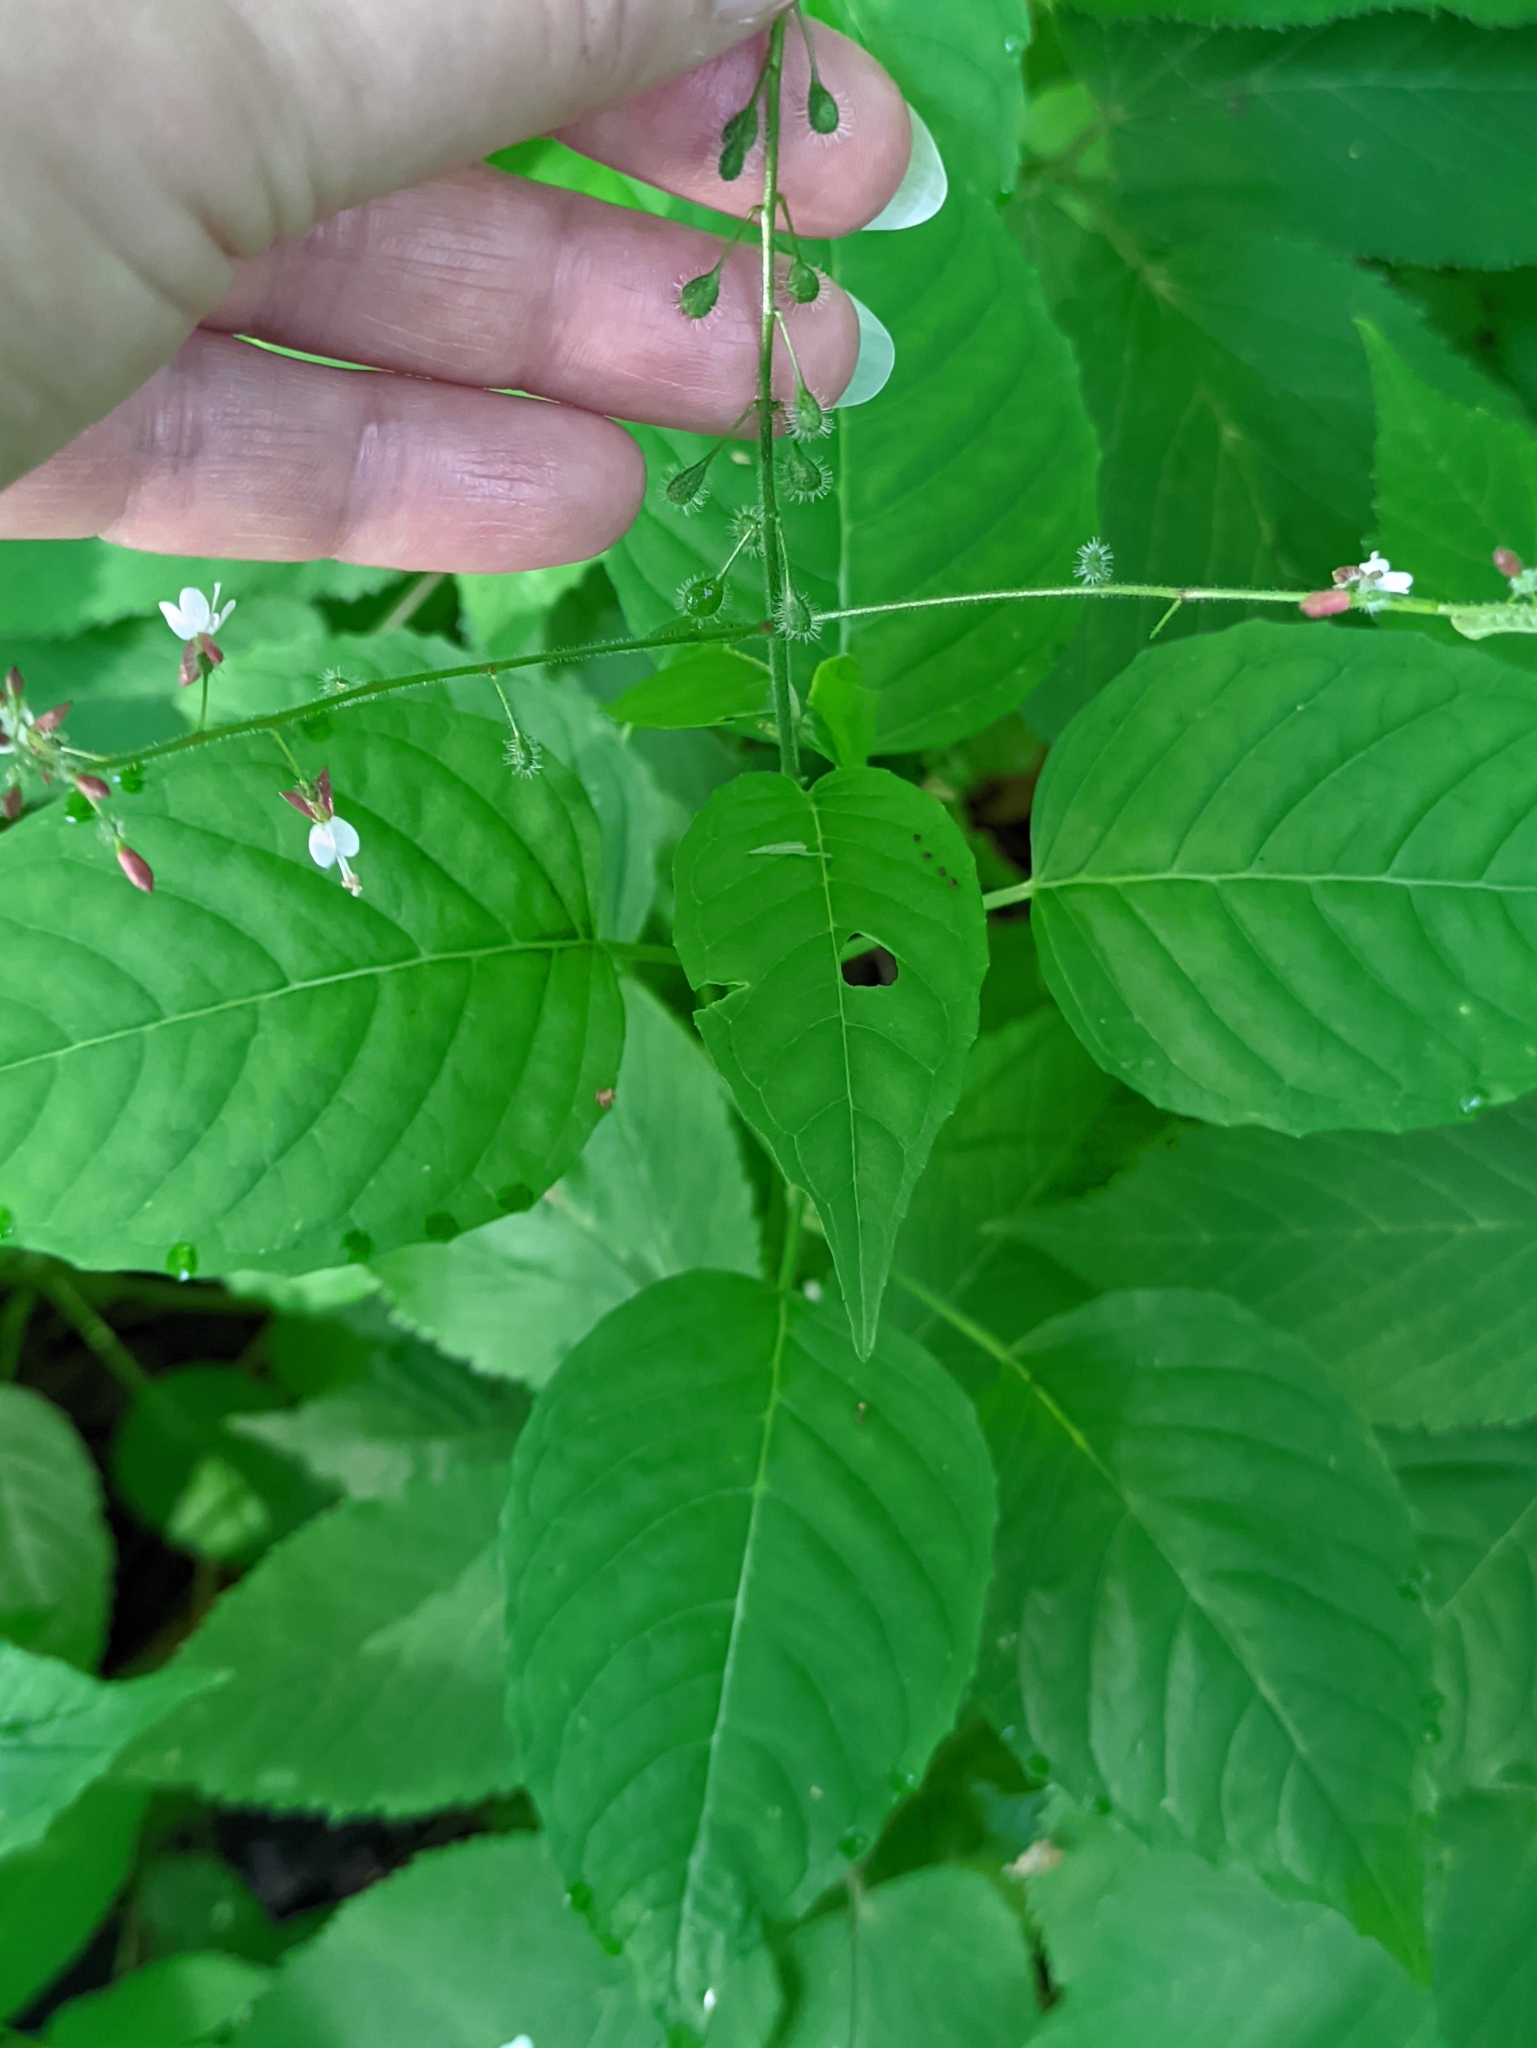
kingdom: Plantae
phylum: Tracheophyta
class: Magnoliopsida
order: Myrtales
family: Onagraceae
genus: Circaea
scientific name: Circaea lutetiana
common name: Enchanter's-nightshade
